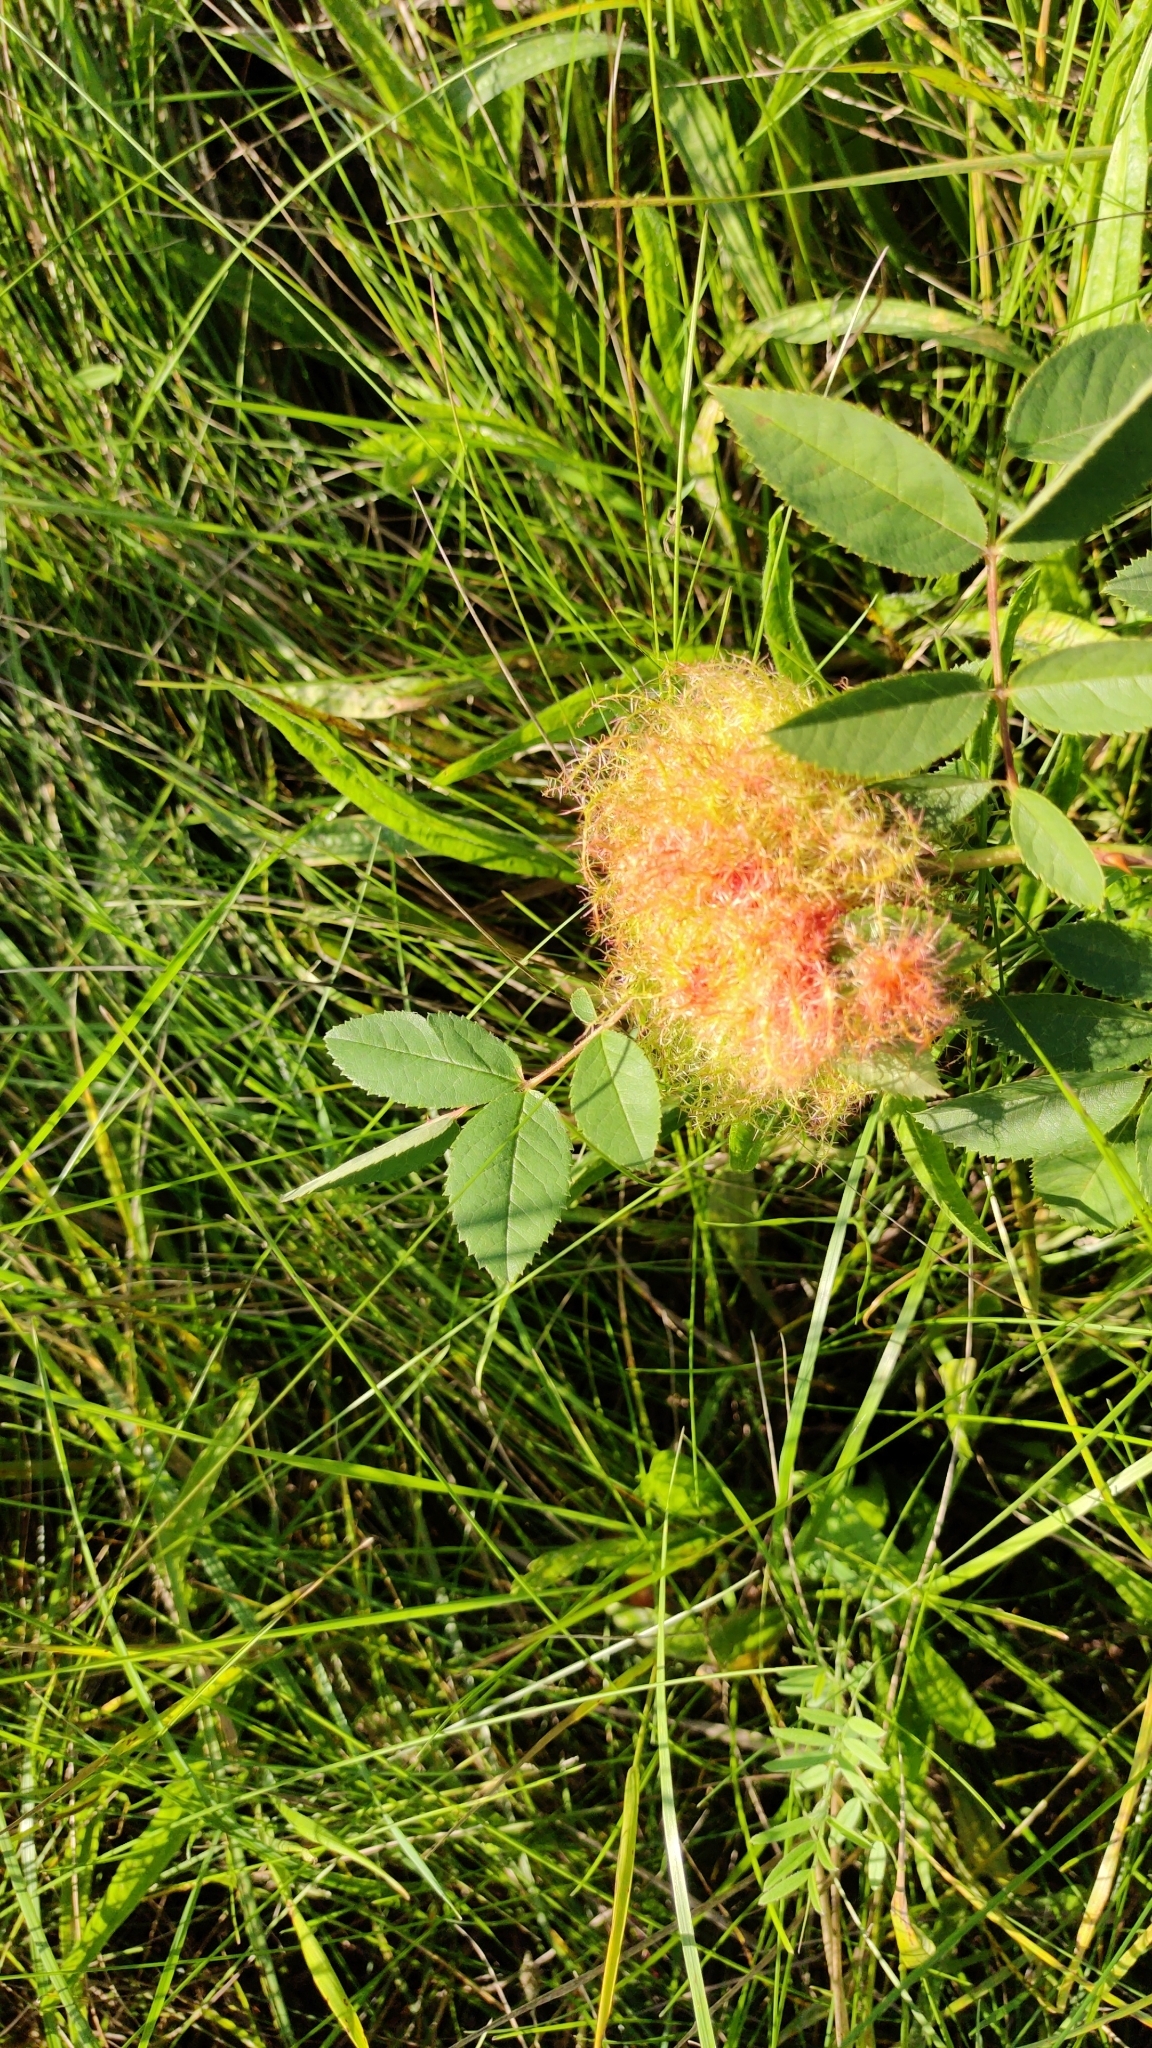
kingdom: Animalia
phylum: Arthropoda
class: Insecta
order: Hymenoptera
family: Cynipidae
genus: Diplolepis
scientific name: Diplolepis rosae
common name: Bedeguar gall
